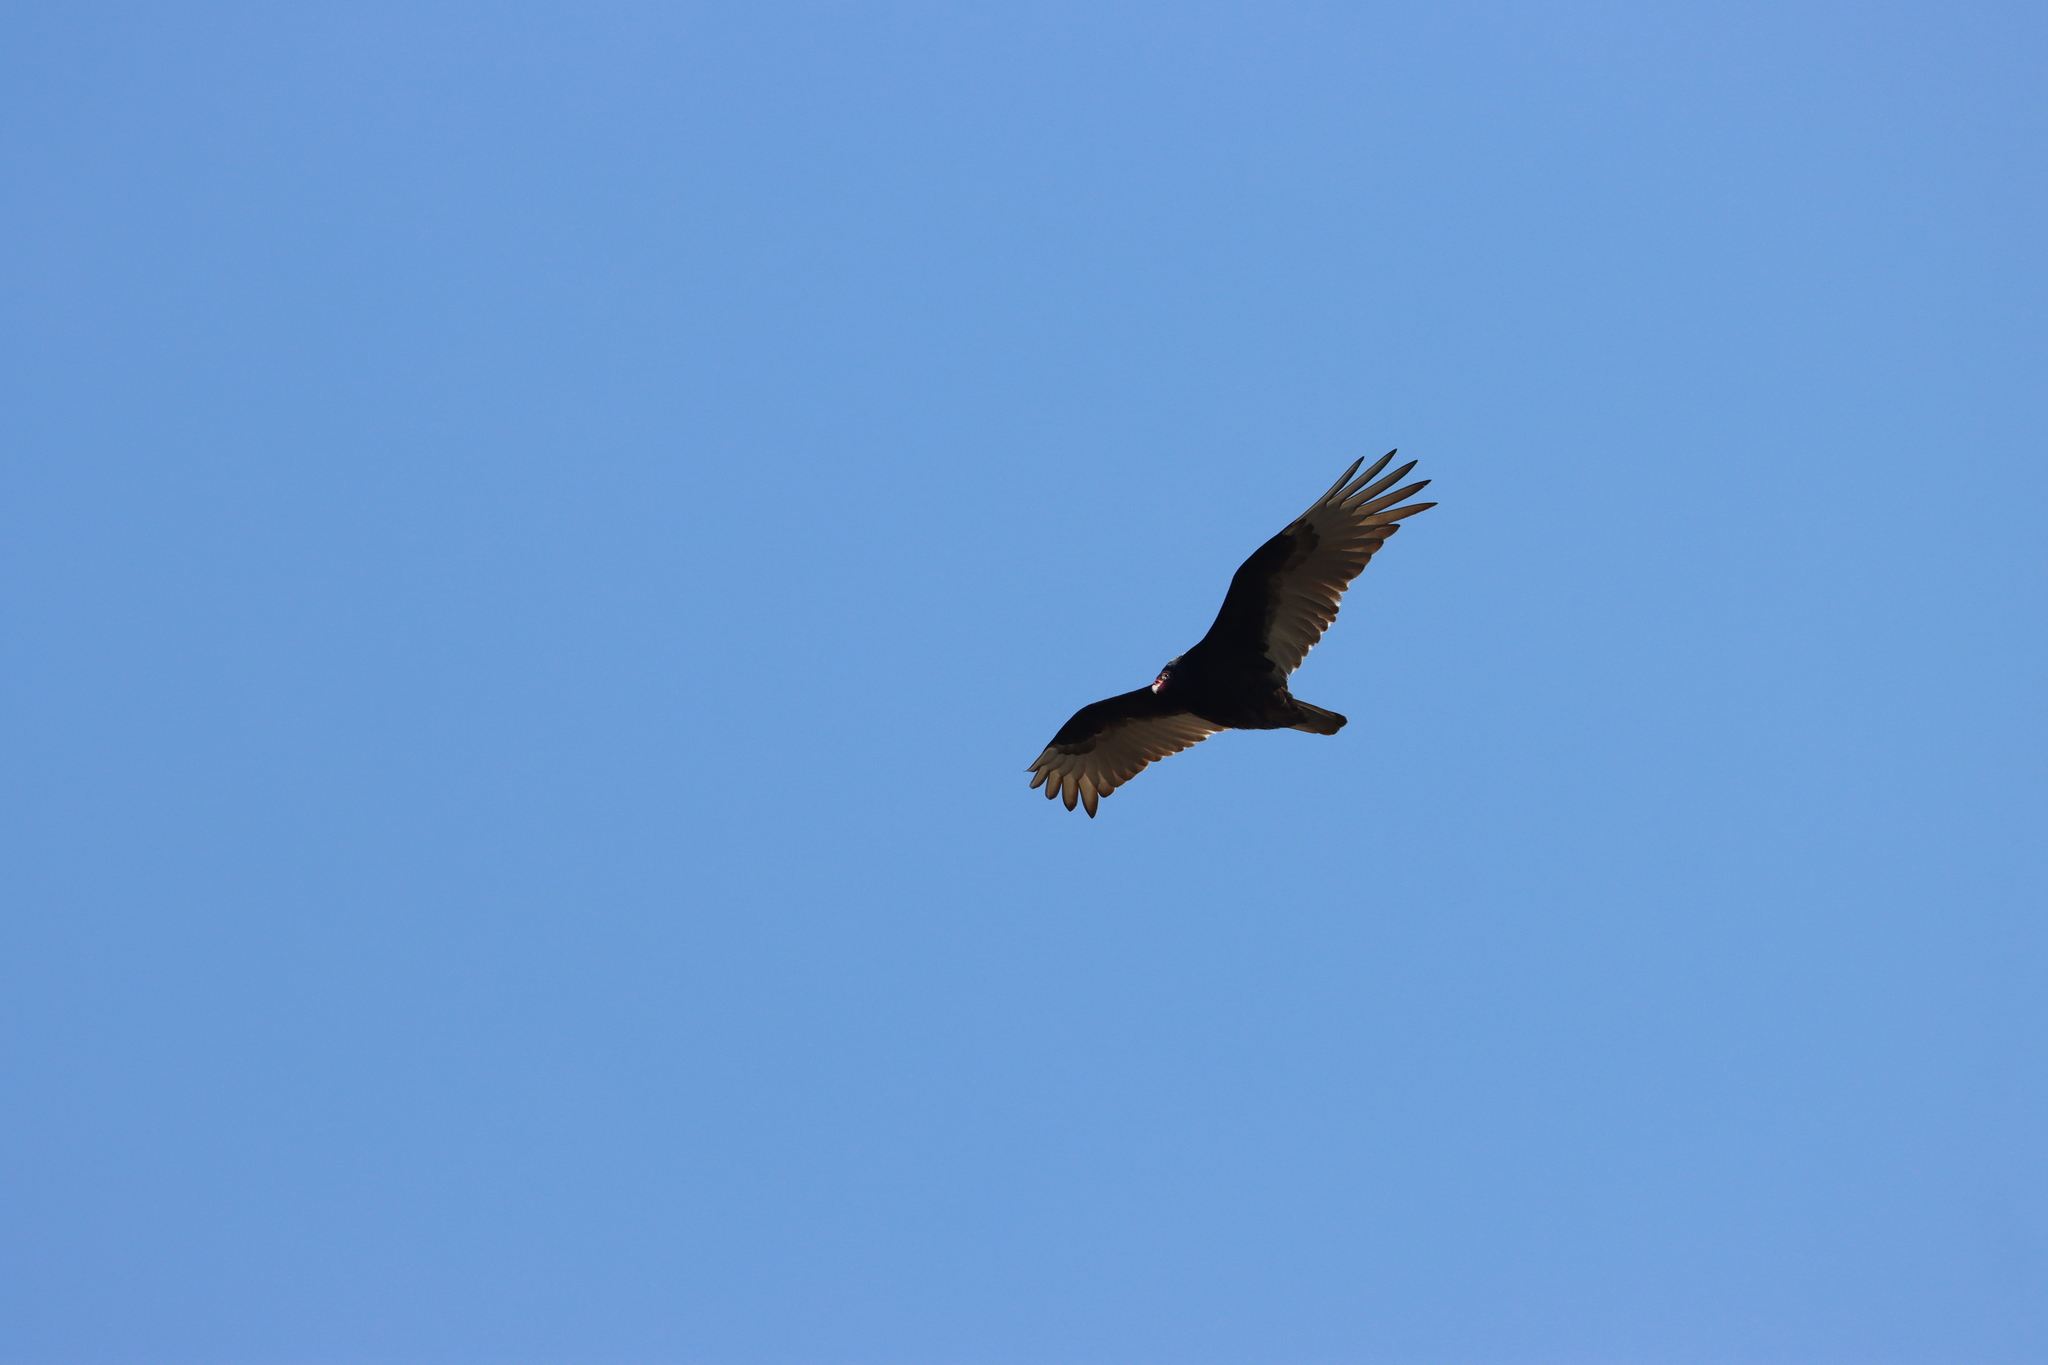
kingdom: Animalia
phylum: Chordata
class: Aves
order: Accipitriformes
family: Cathartidae
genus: Cathartes
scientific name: Cathartes aura
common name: Turkey vulture
